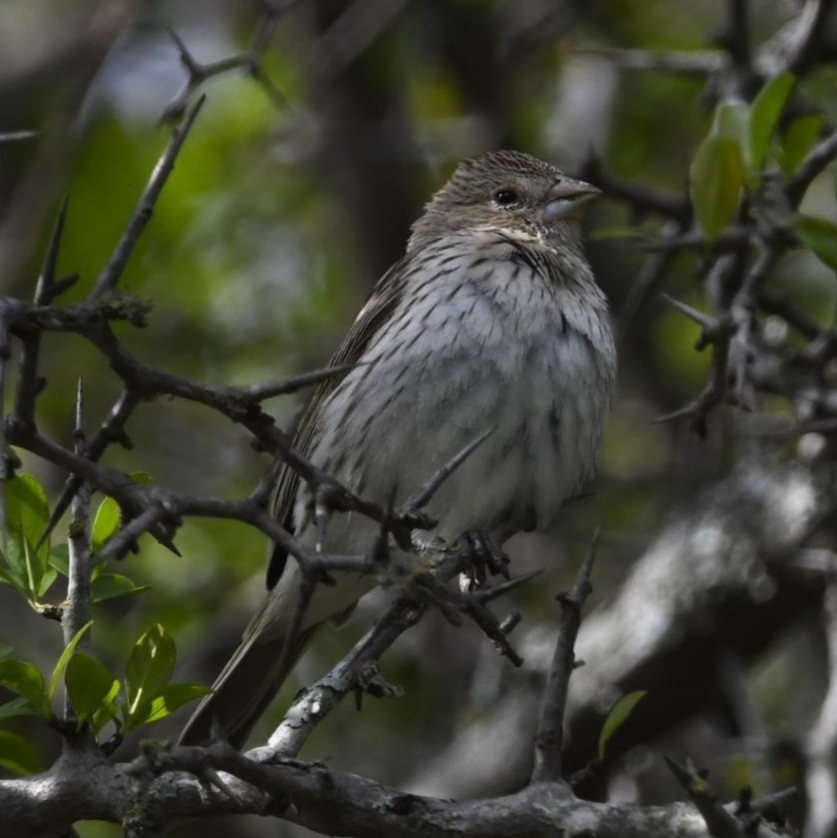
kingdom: Animalia
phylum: Chordata
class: Aves
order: Passeriformes
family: Thraupidae
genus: Sicalis
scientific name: Sicalis flaveola
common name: Saffron finch
